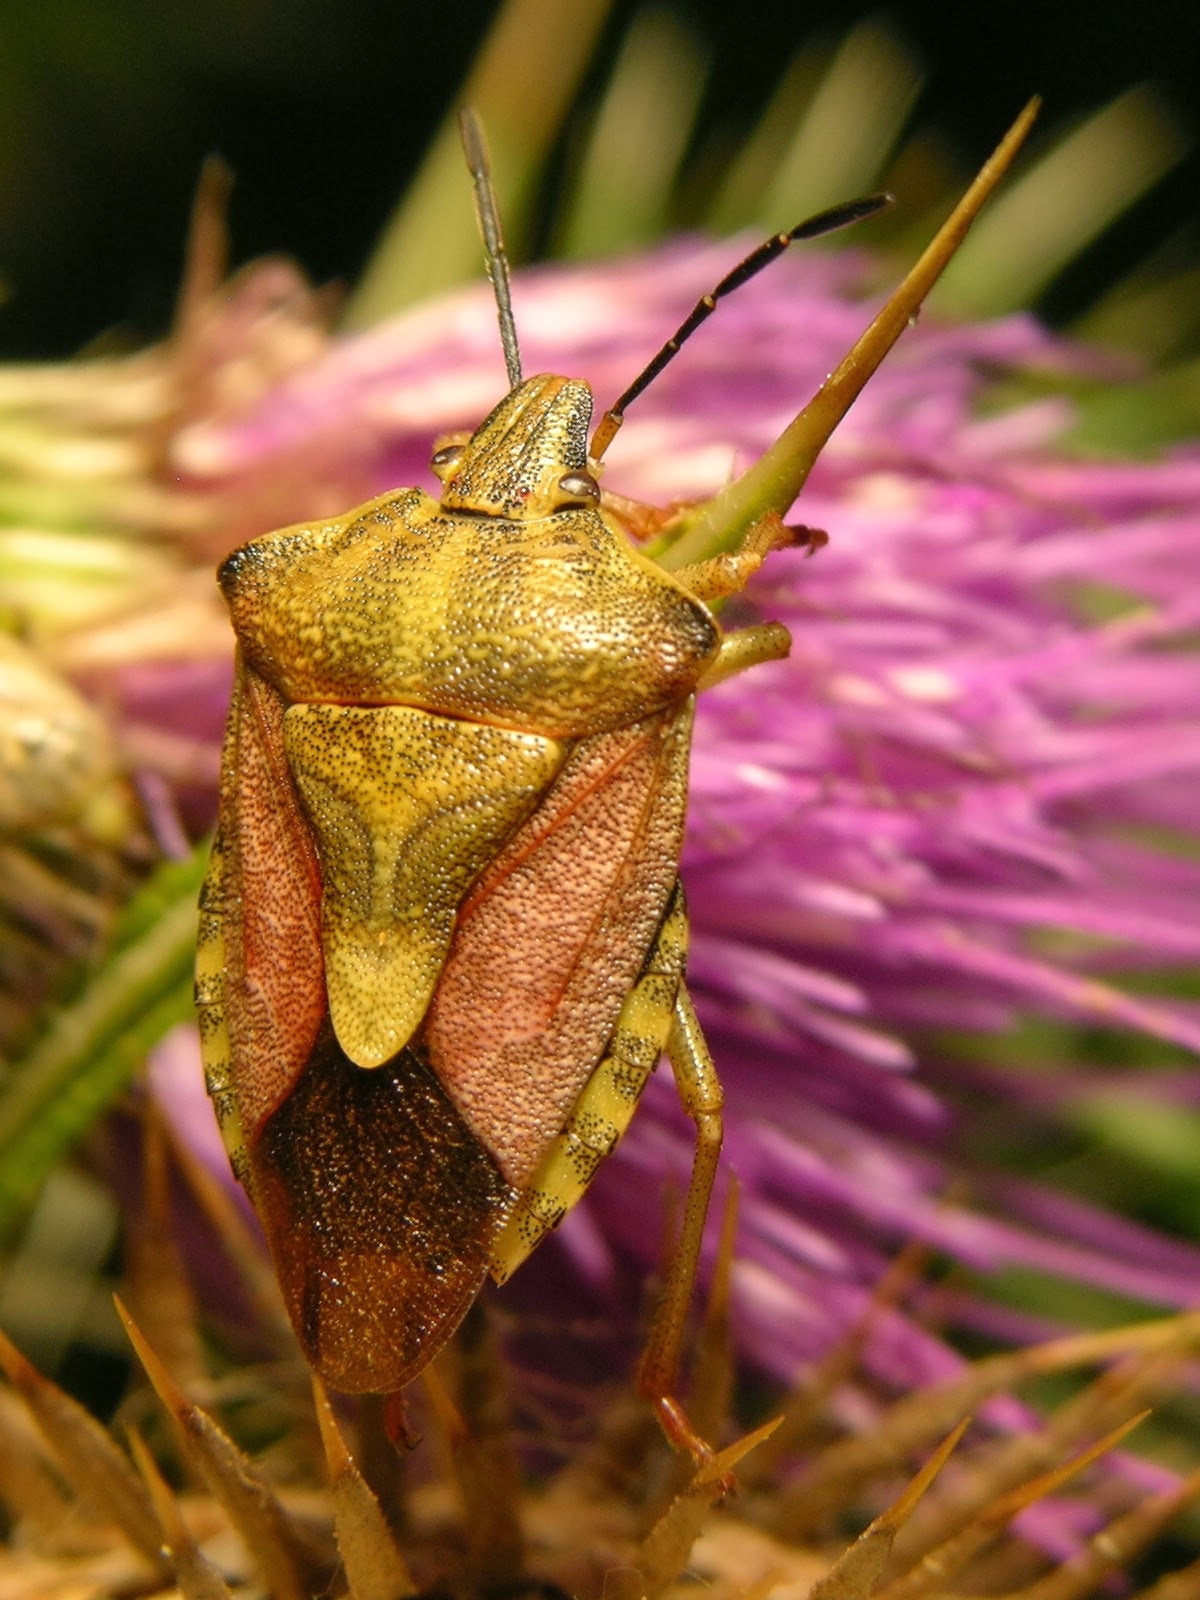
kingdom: Animalia
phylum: Arthropoda
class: Insecta
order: Hemiptera
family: Pentatomidae
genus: Carpocoris
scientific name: Carpocoris purpureipennis
